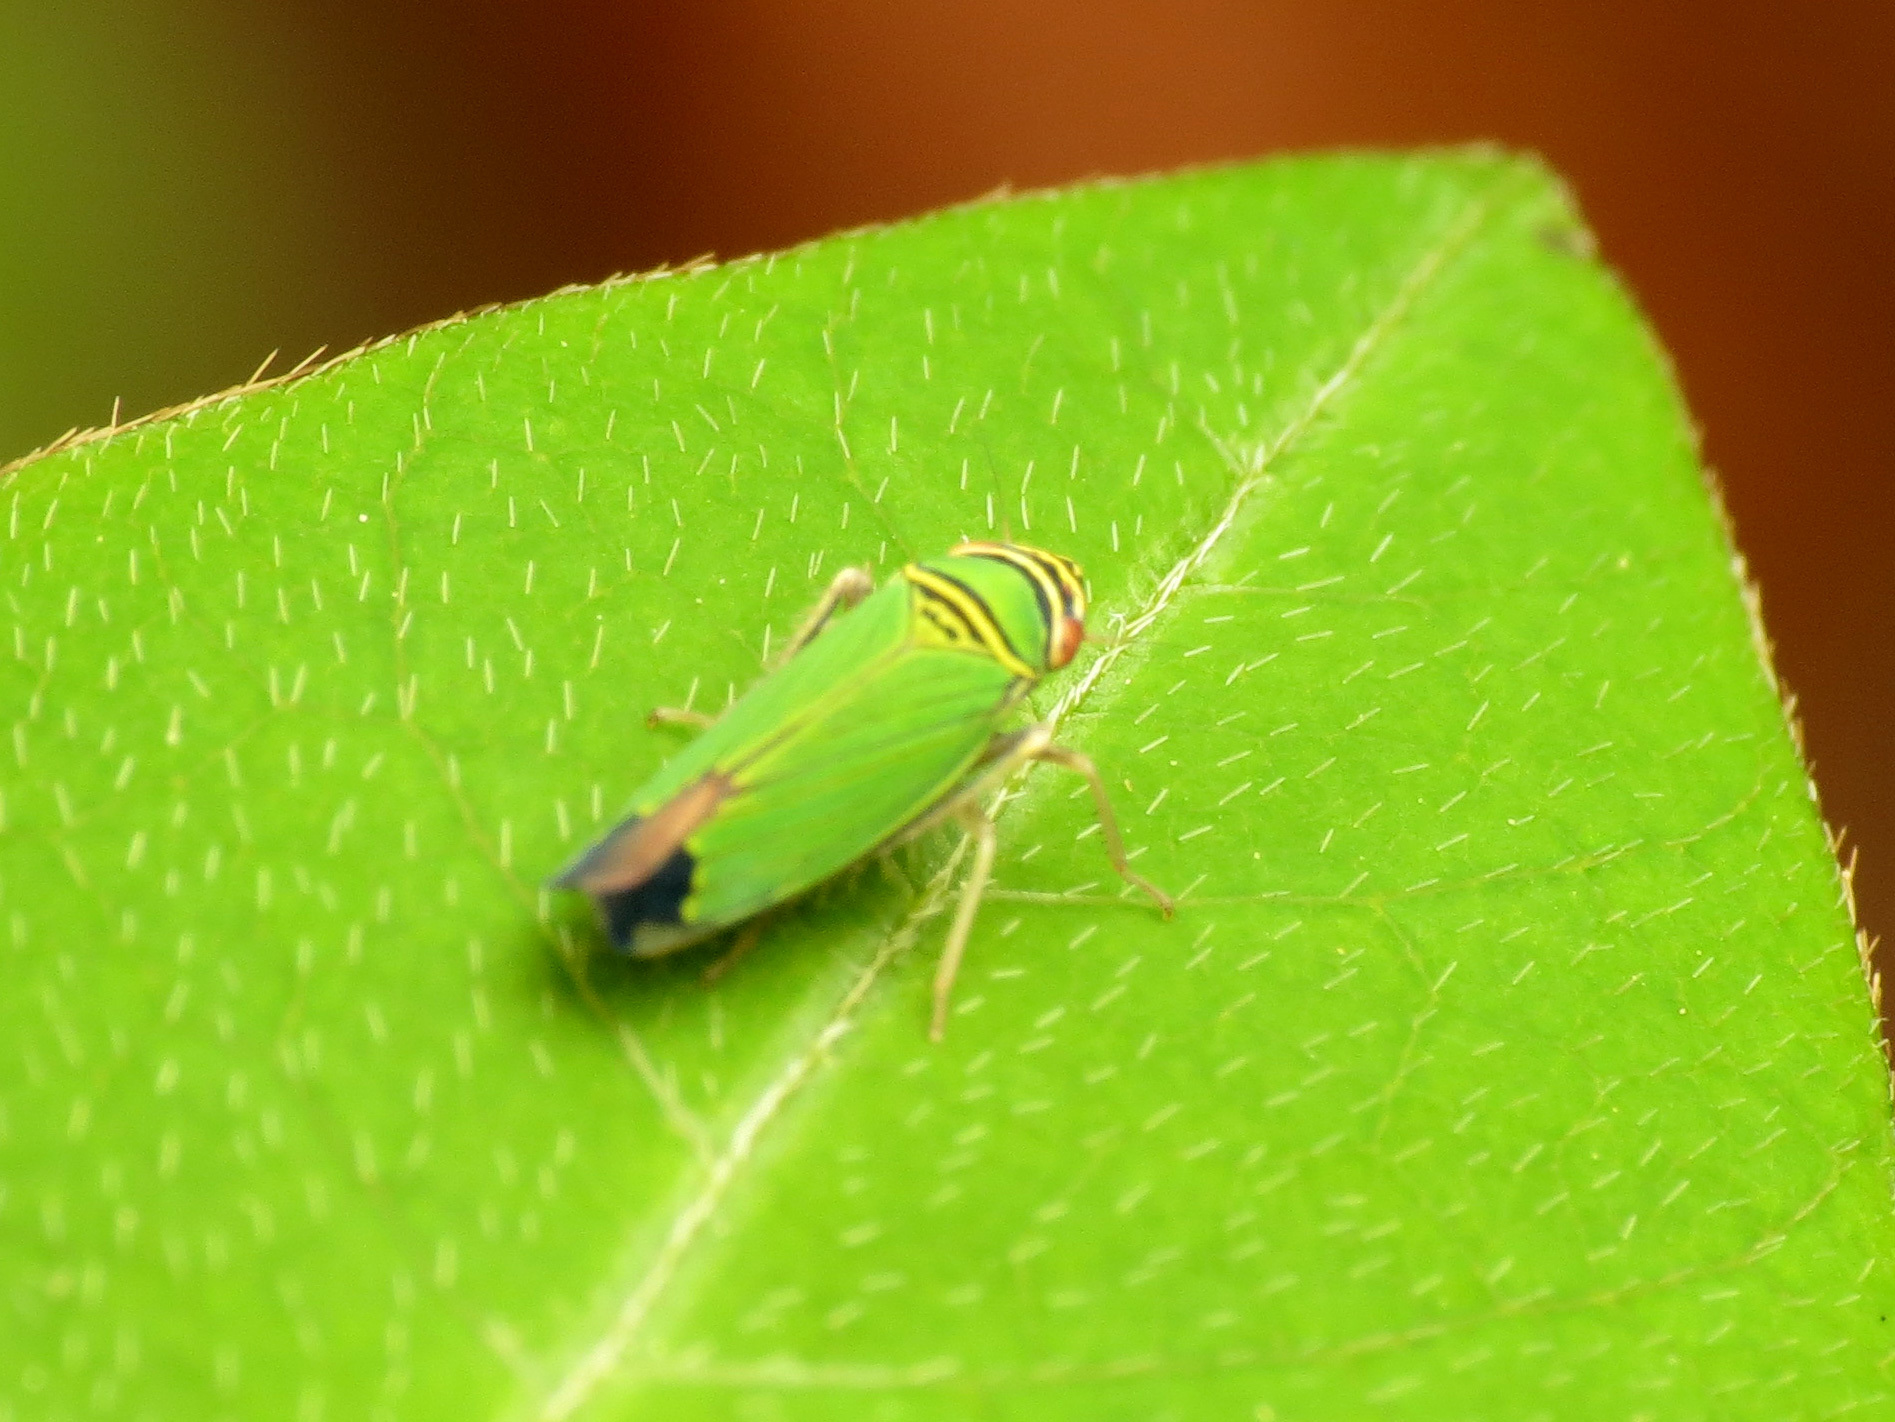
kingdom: Animalia
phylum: Arthropoda
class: Insecta
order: Hemiptera
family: Cicadellidae
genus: Tylozygus
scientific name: Tylozygus geometricus
